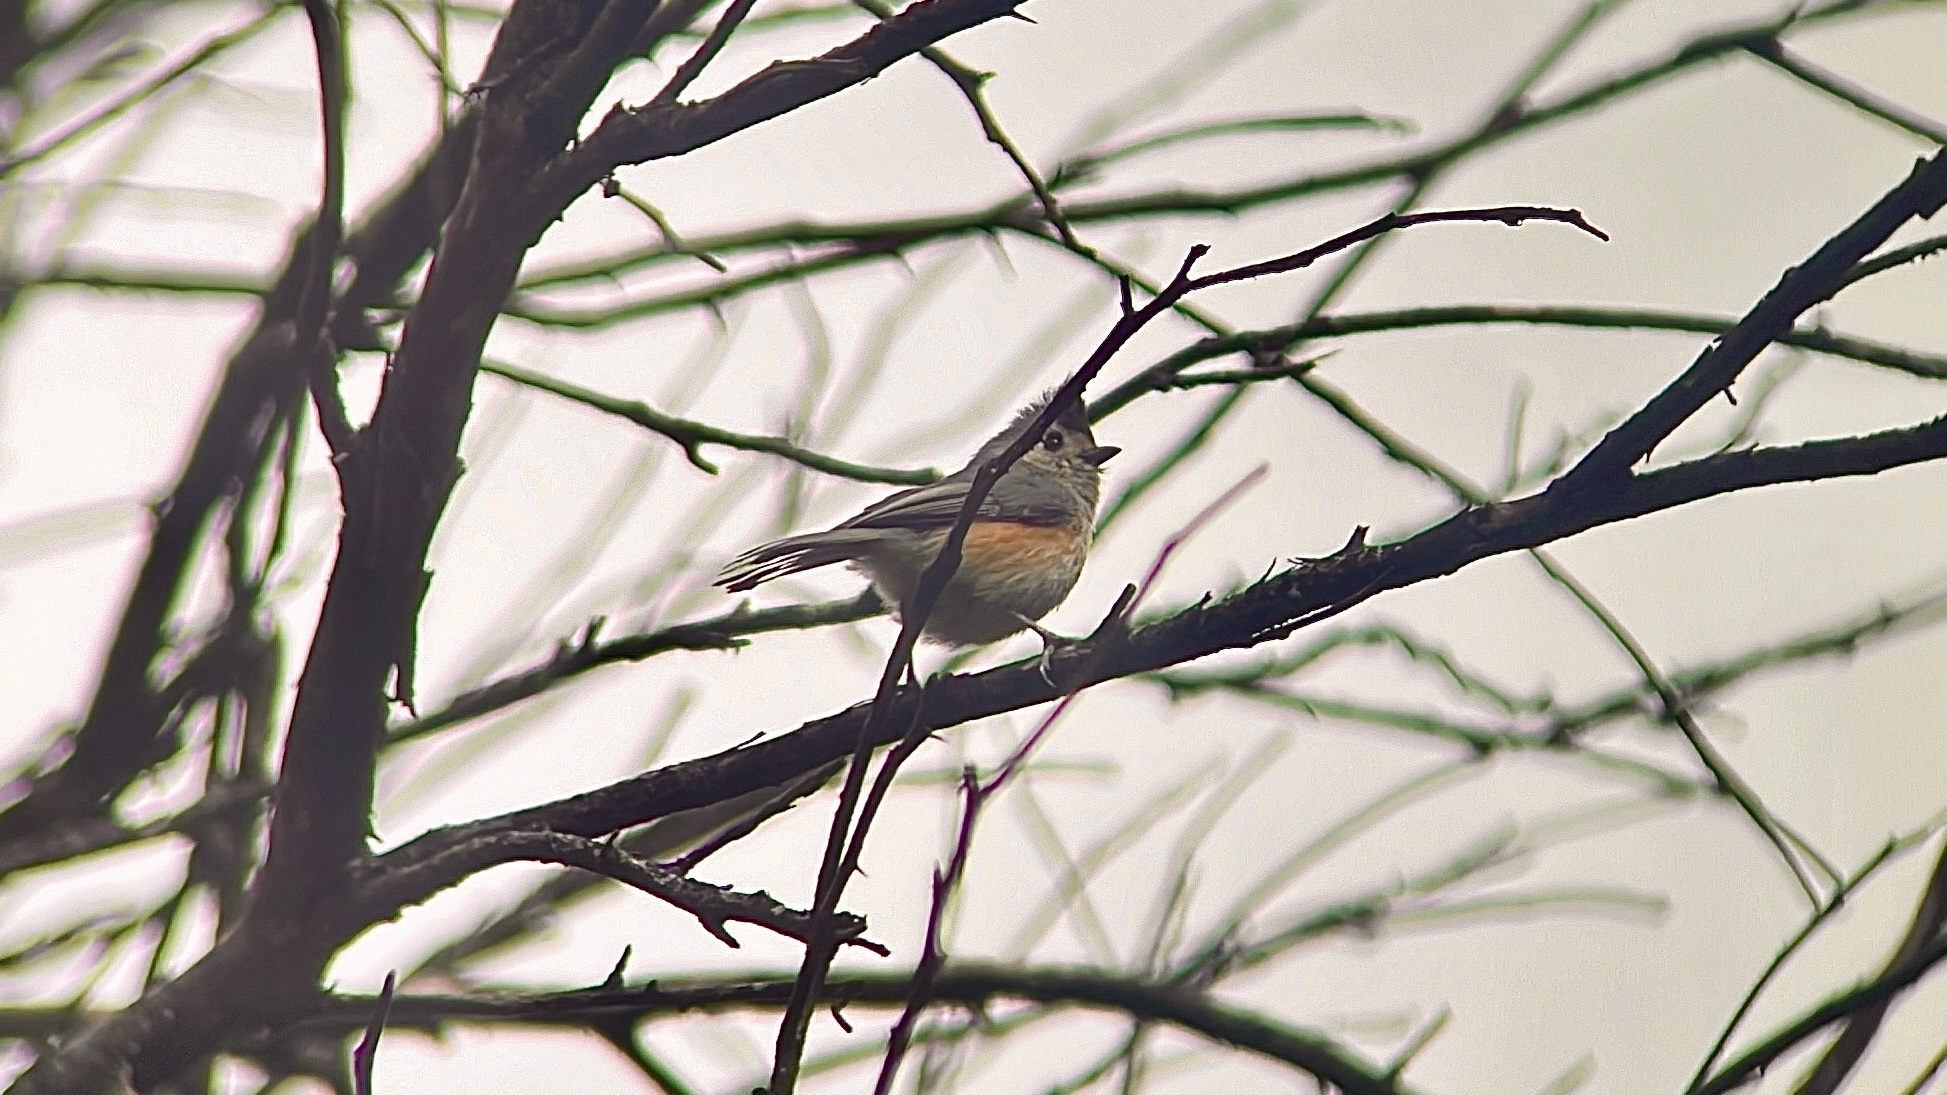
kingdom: Animalia
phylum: Chordata
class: Aves
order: Passeriformes
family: Paridae
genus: Baeolophus
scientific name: Baeolophus atricristatus
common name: Black-crested titmouse
